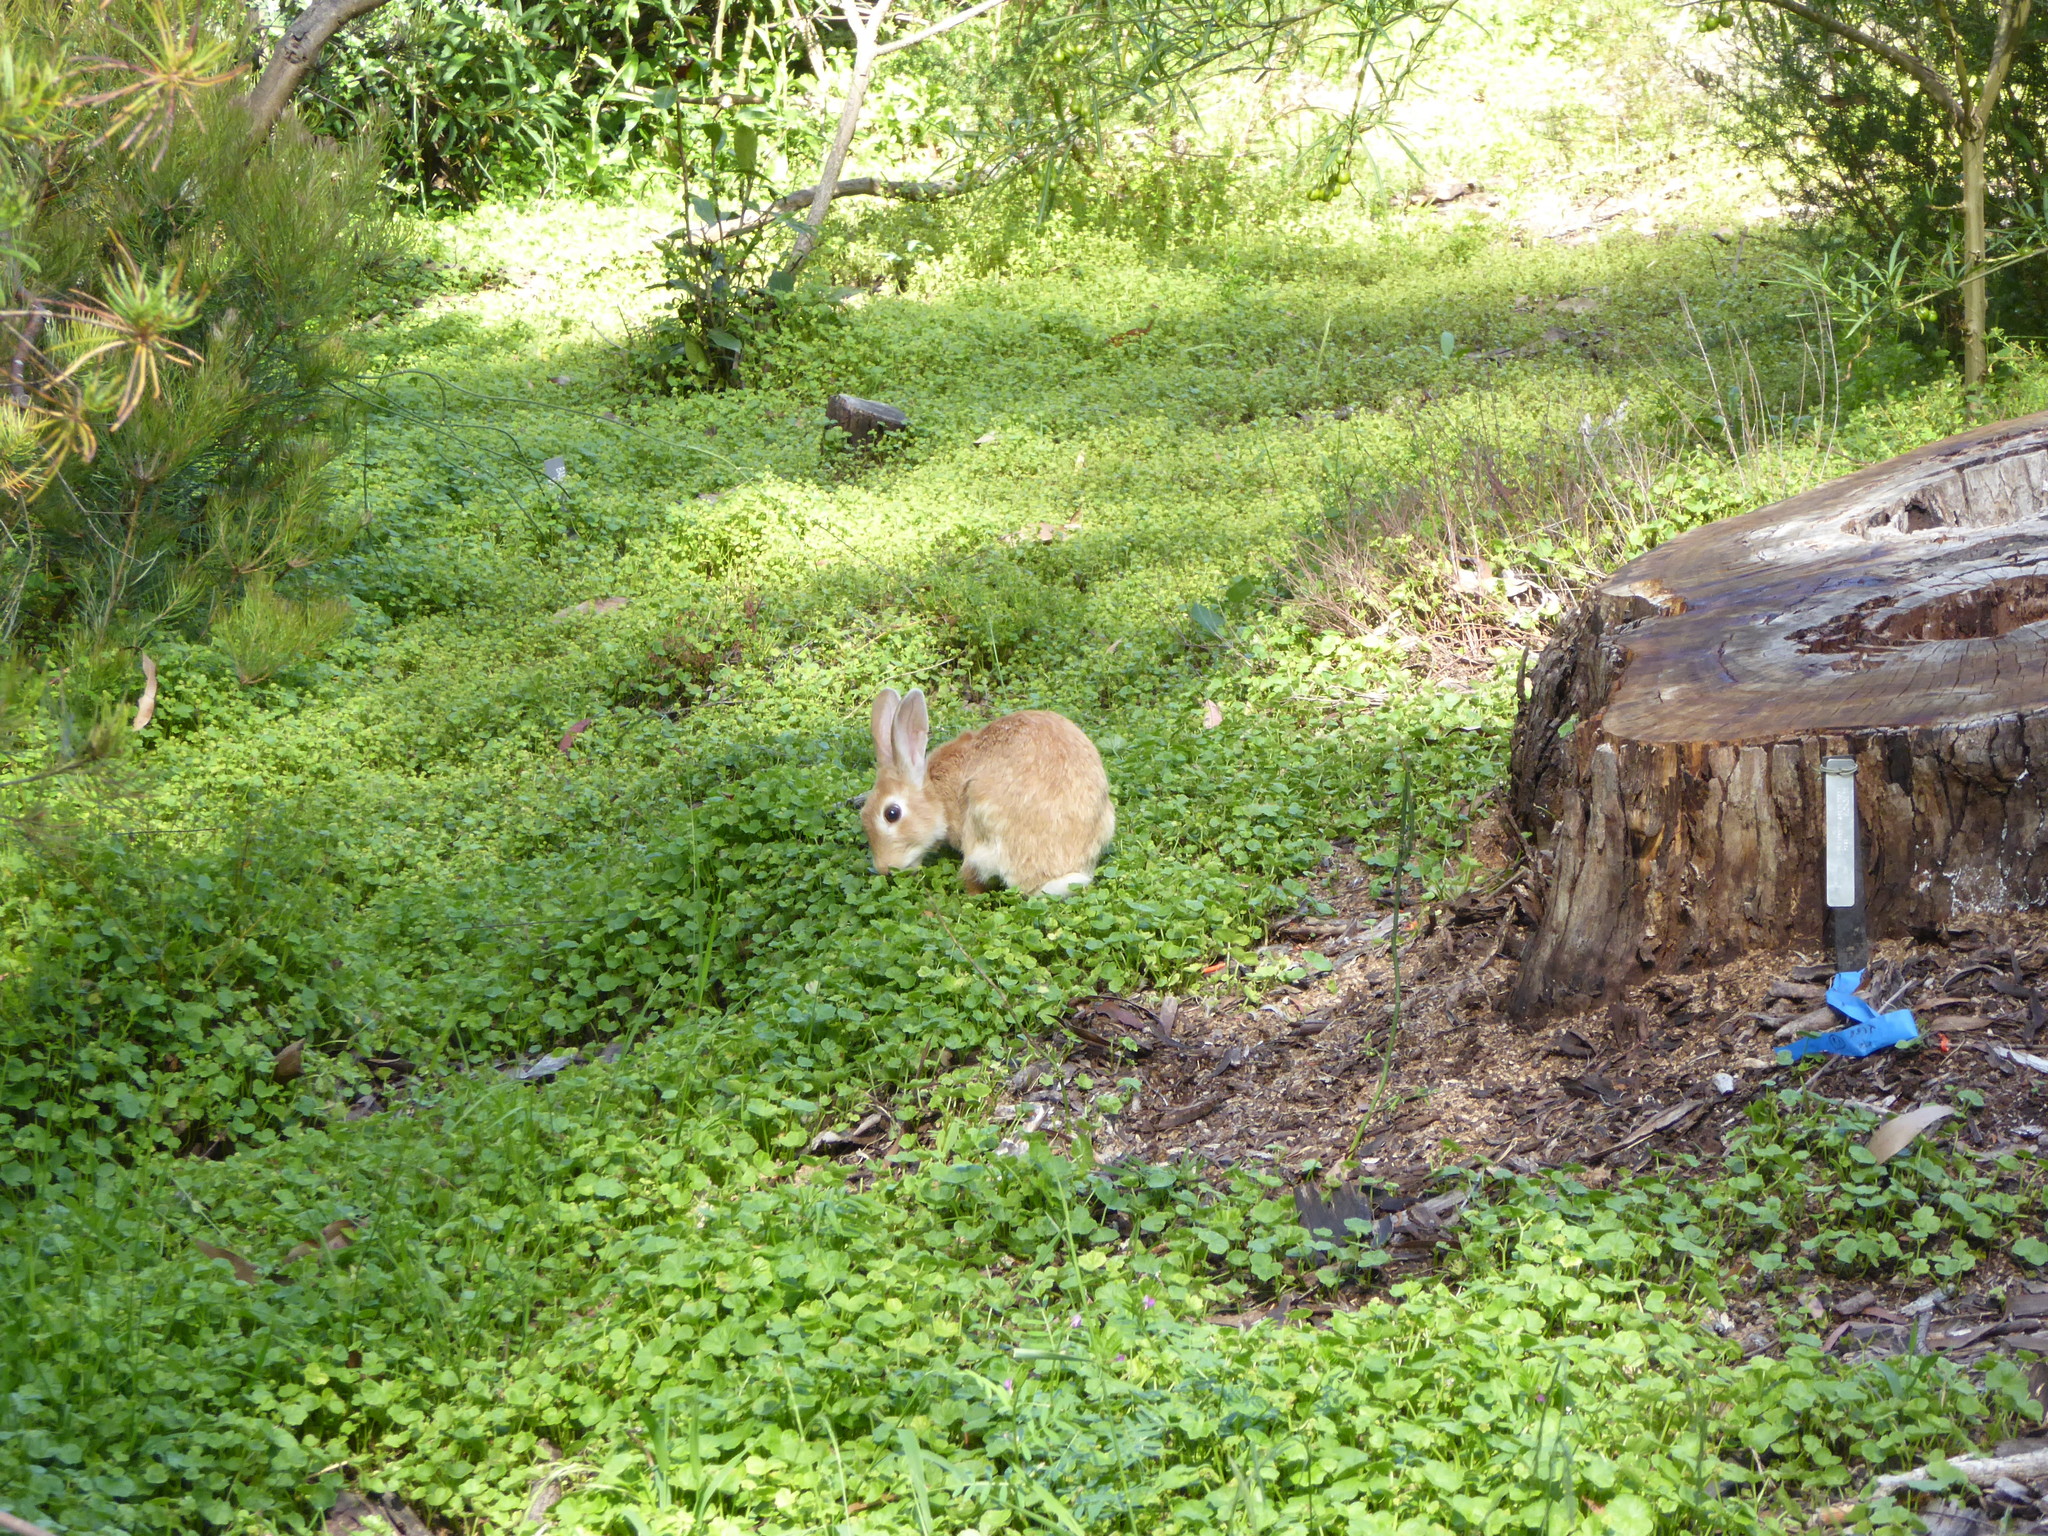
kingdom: Animalia
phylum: Chordata
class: Mammalia
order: Lagomorpha
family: Leporidae
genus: Oryctolagus
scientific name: Oryctolagus cuniculus
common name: European rabbit
